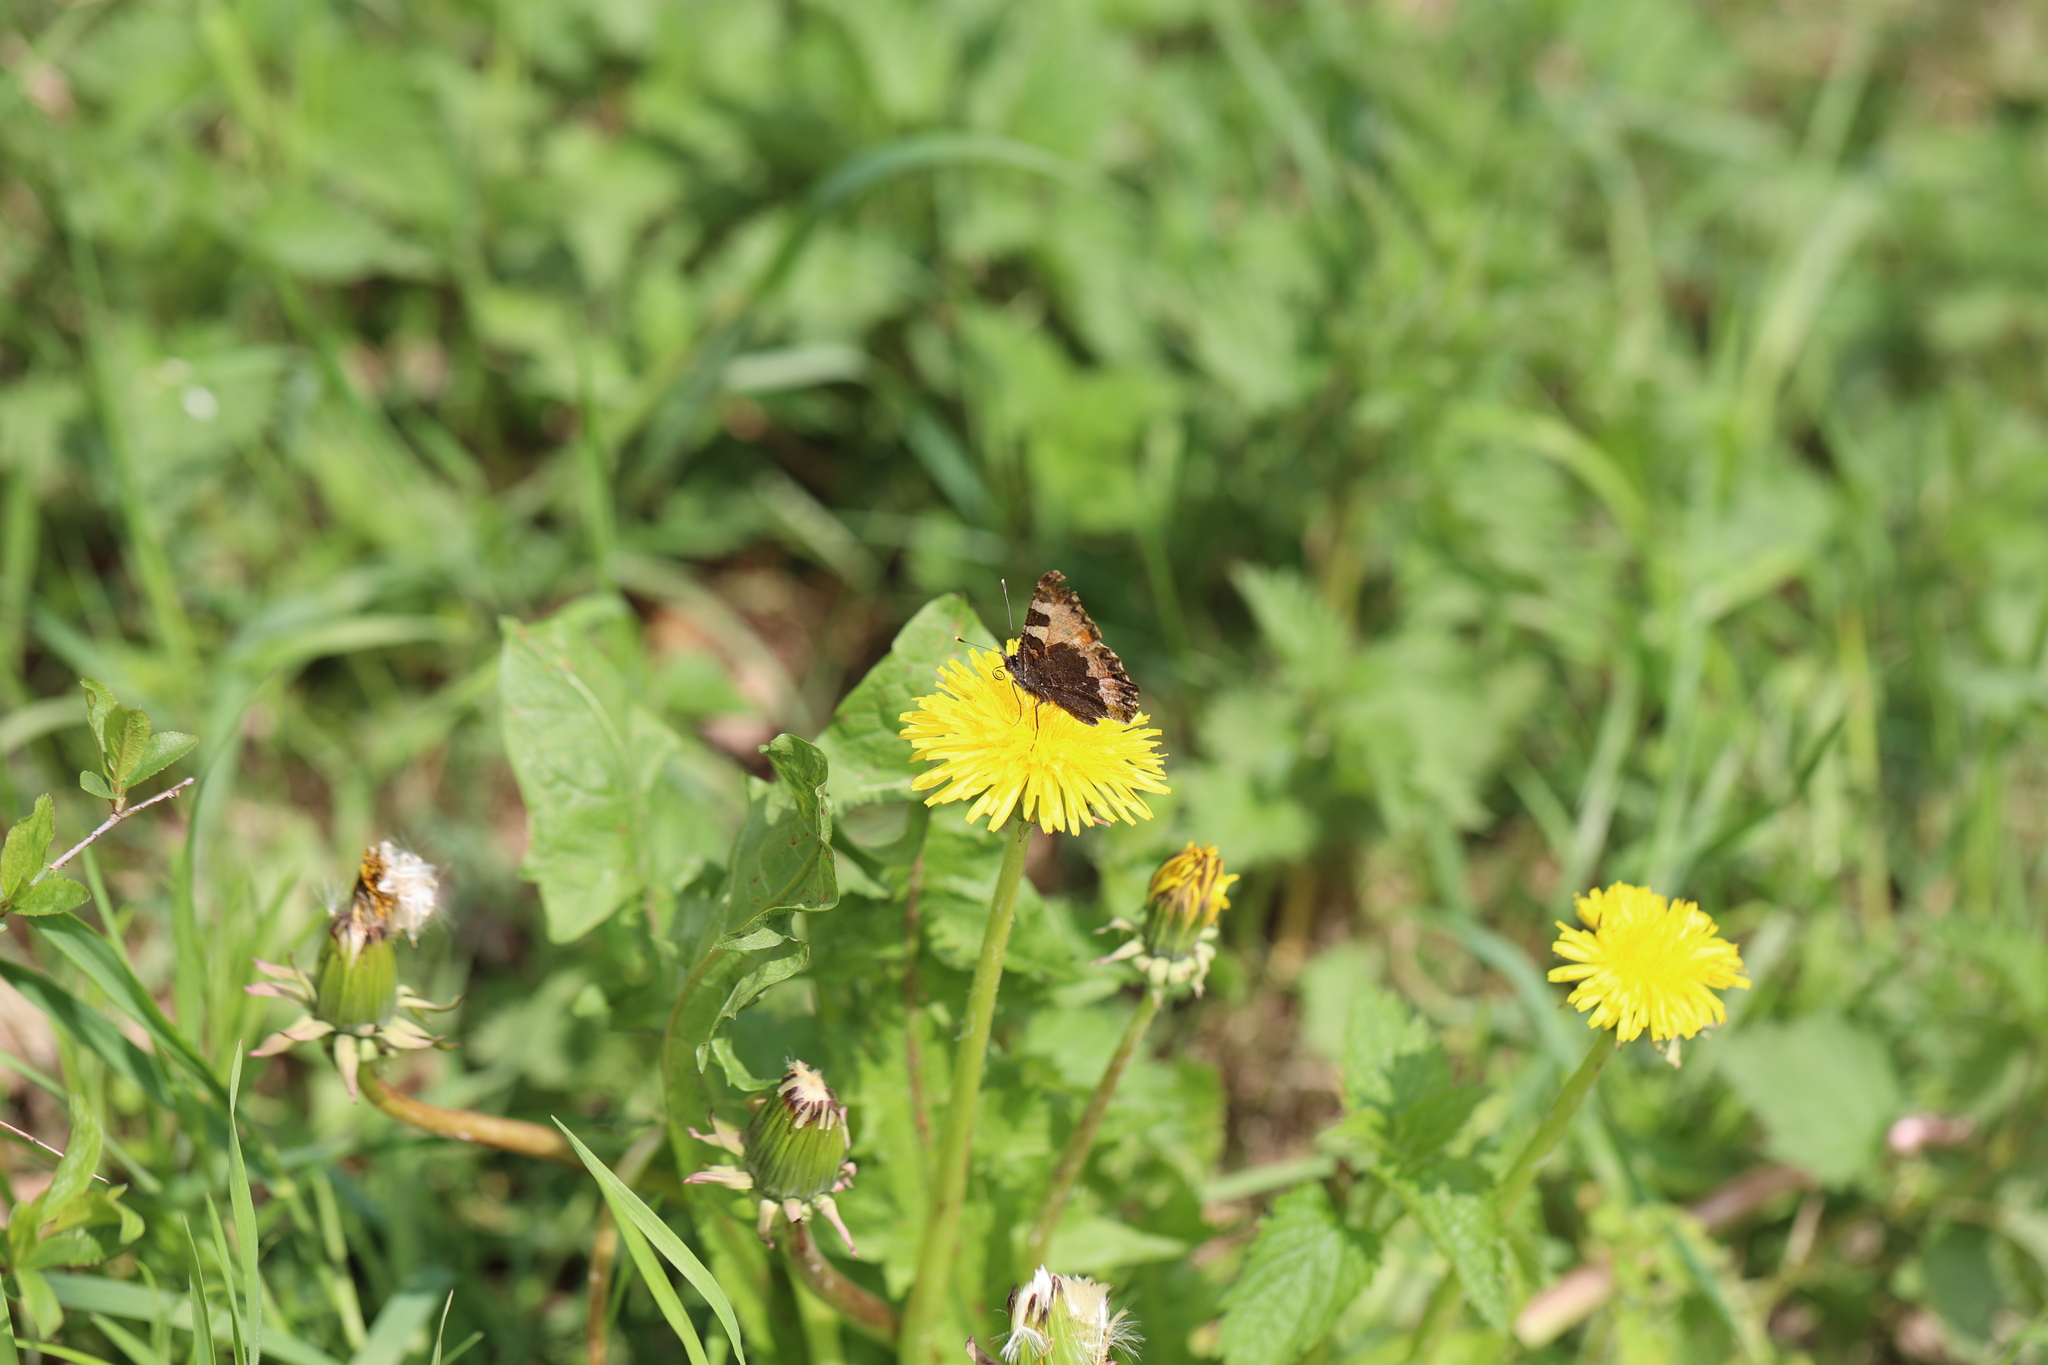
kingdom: Animalia
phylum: Arthropoda
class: Insecta
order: Lepidoptera
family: Nymphalidae
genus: Aglais
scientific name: Aglais urticae
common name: Small tortoiseshell
